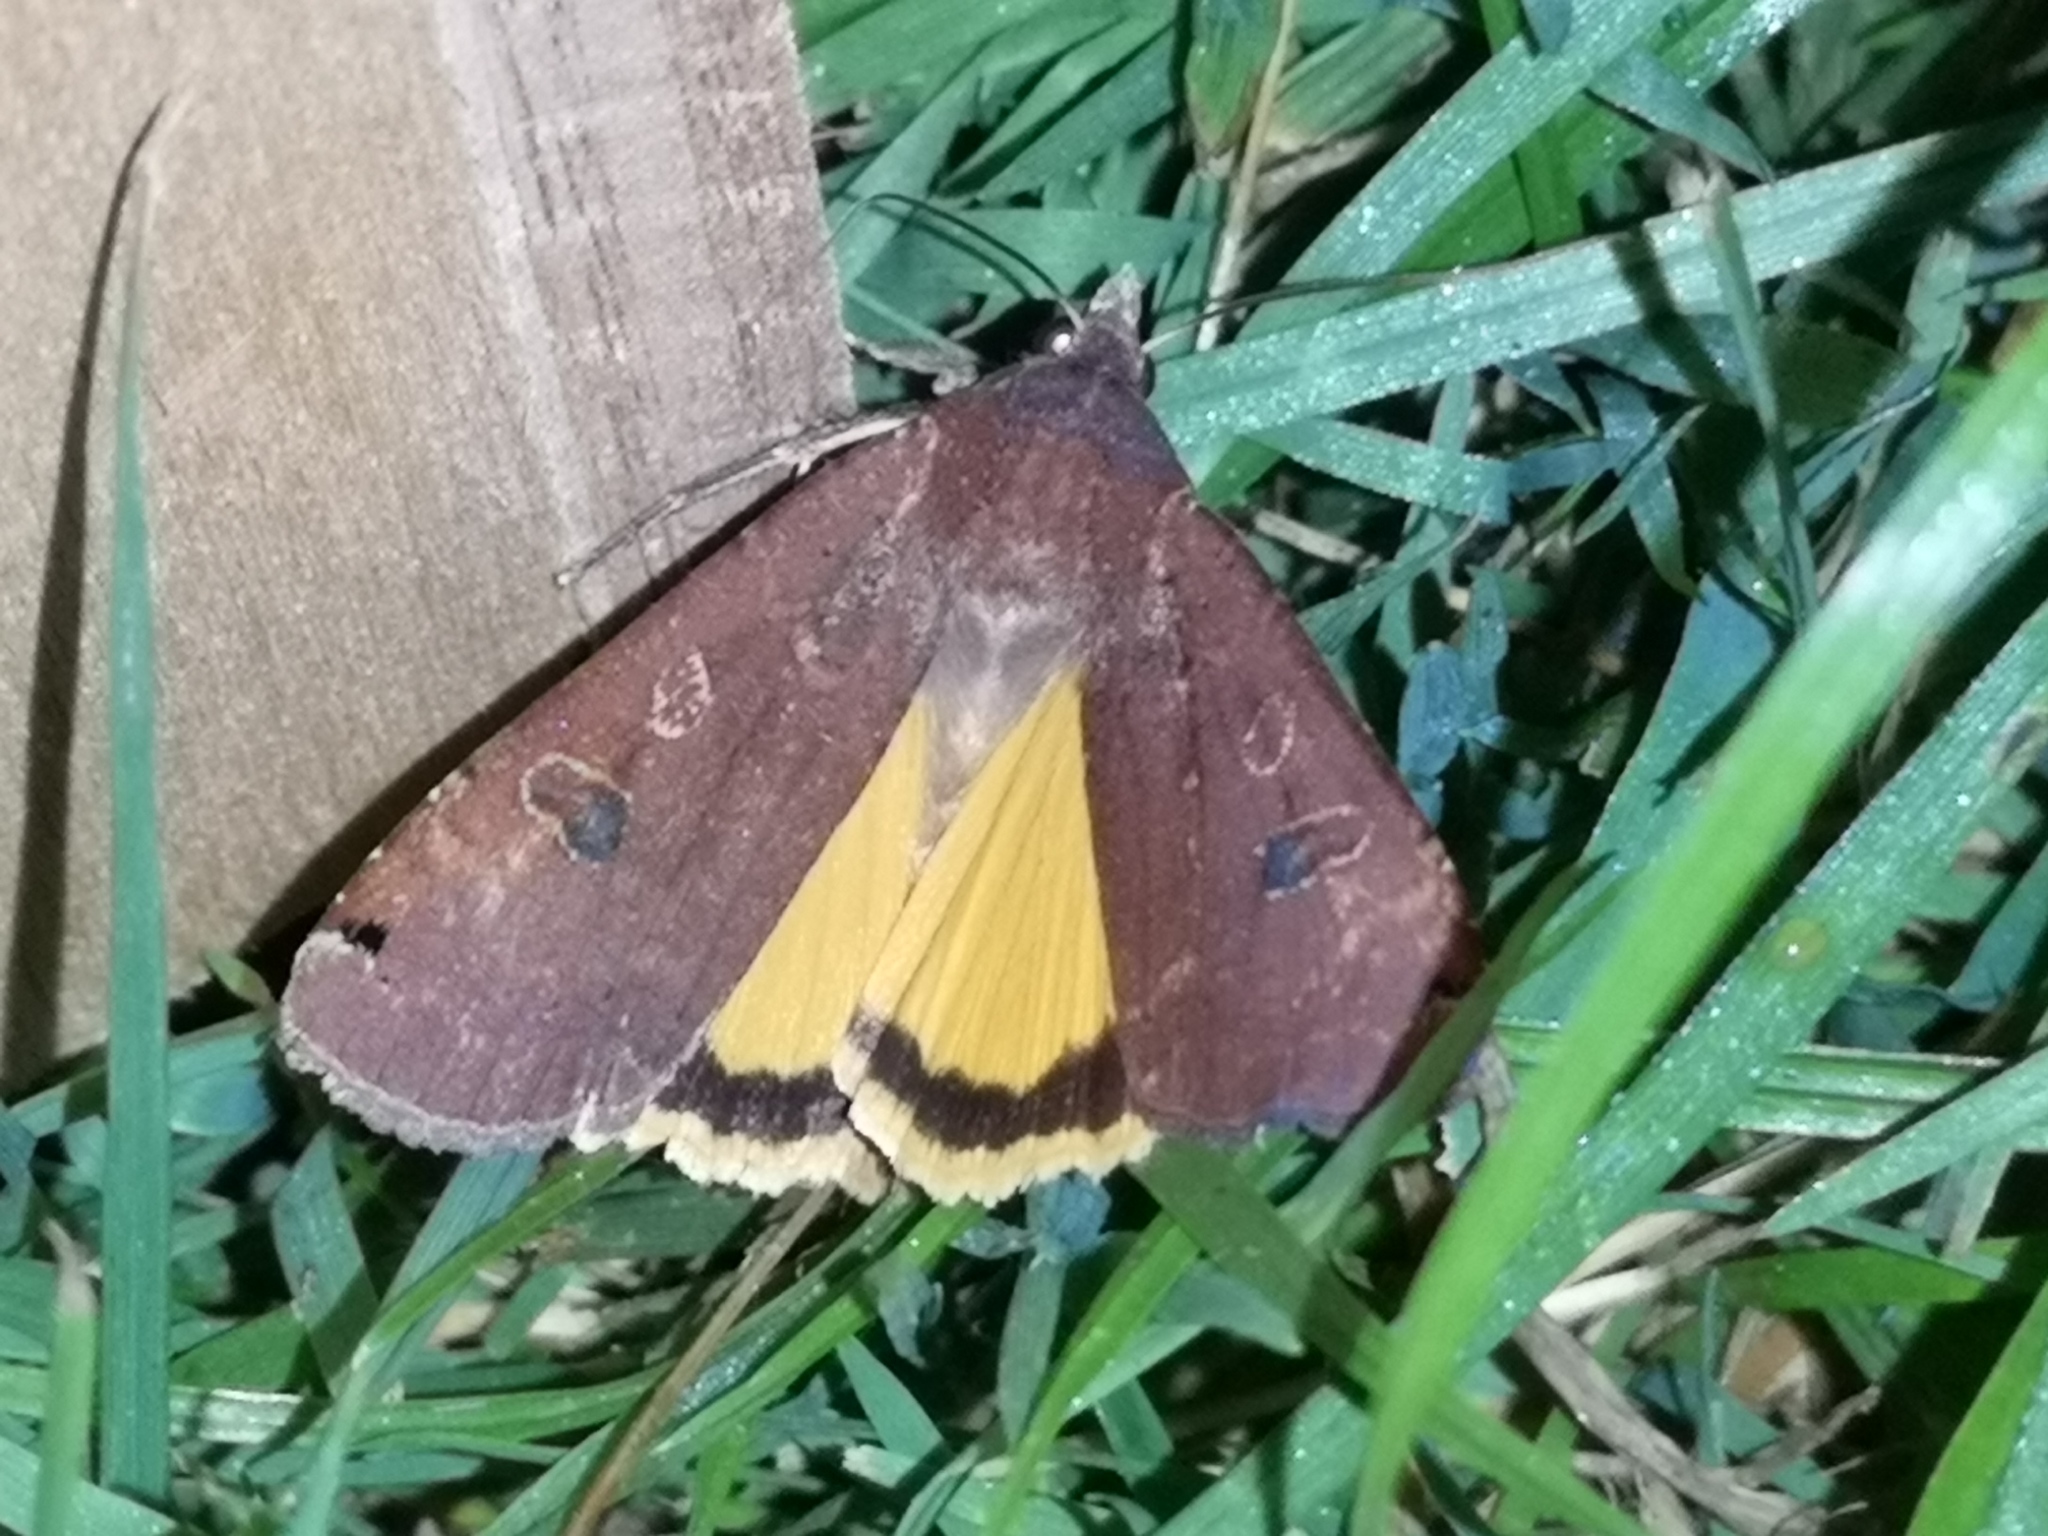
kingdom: Animalia
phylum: Arthropoda
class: Insecta
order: Lepidoptera
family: Noctuidae
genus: Noctua
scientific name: Noctua pronuba
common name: Large yellow underwing
